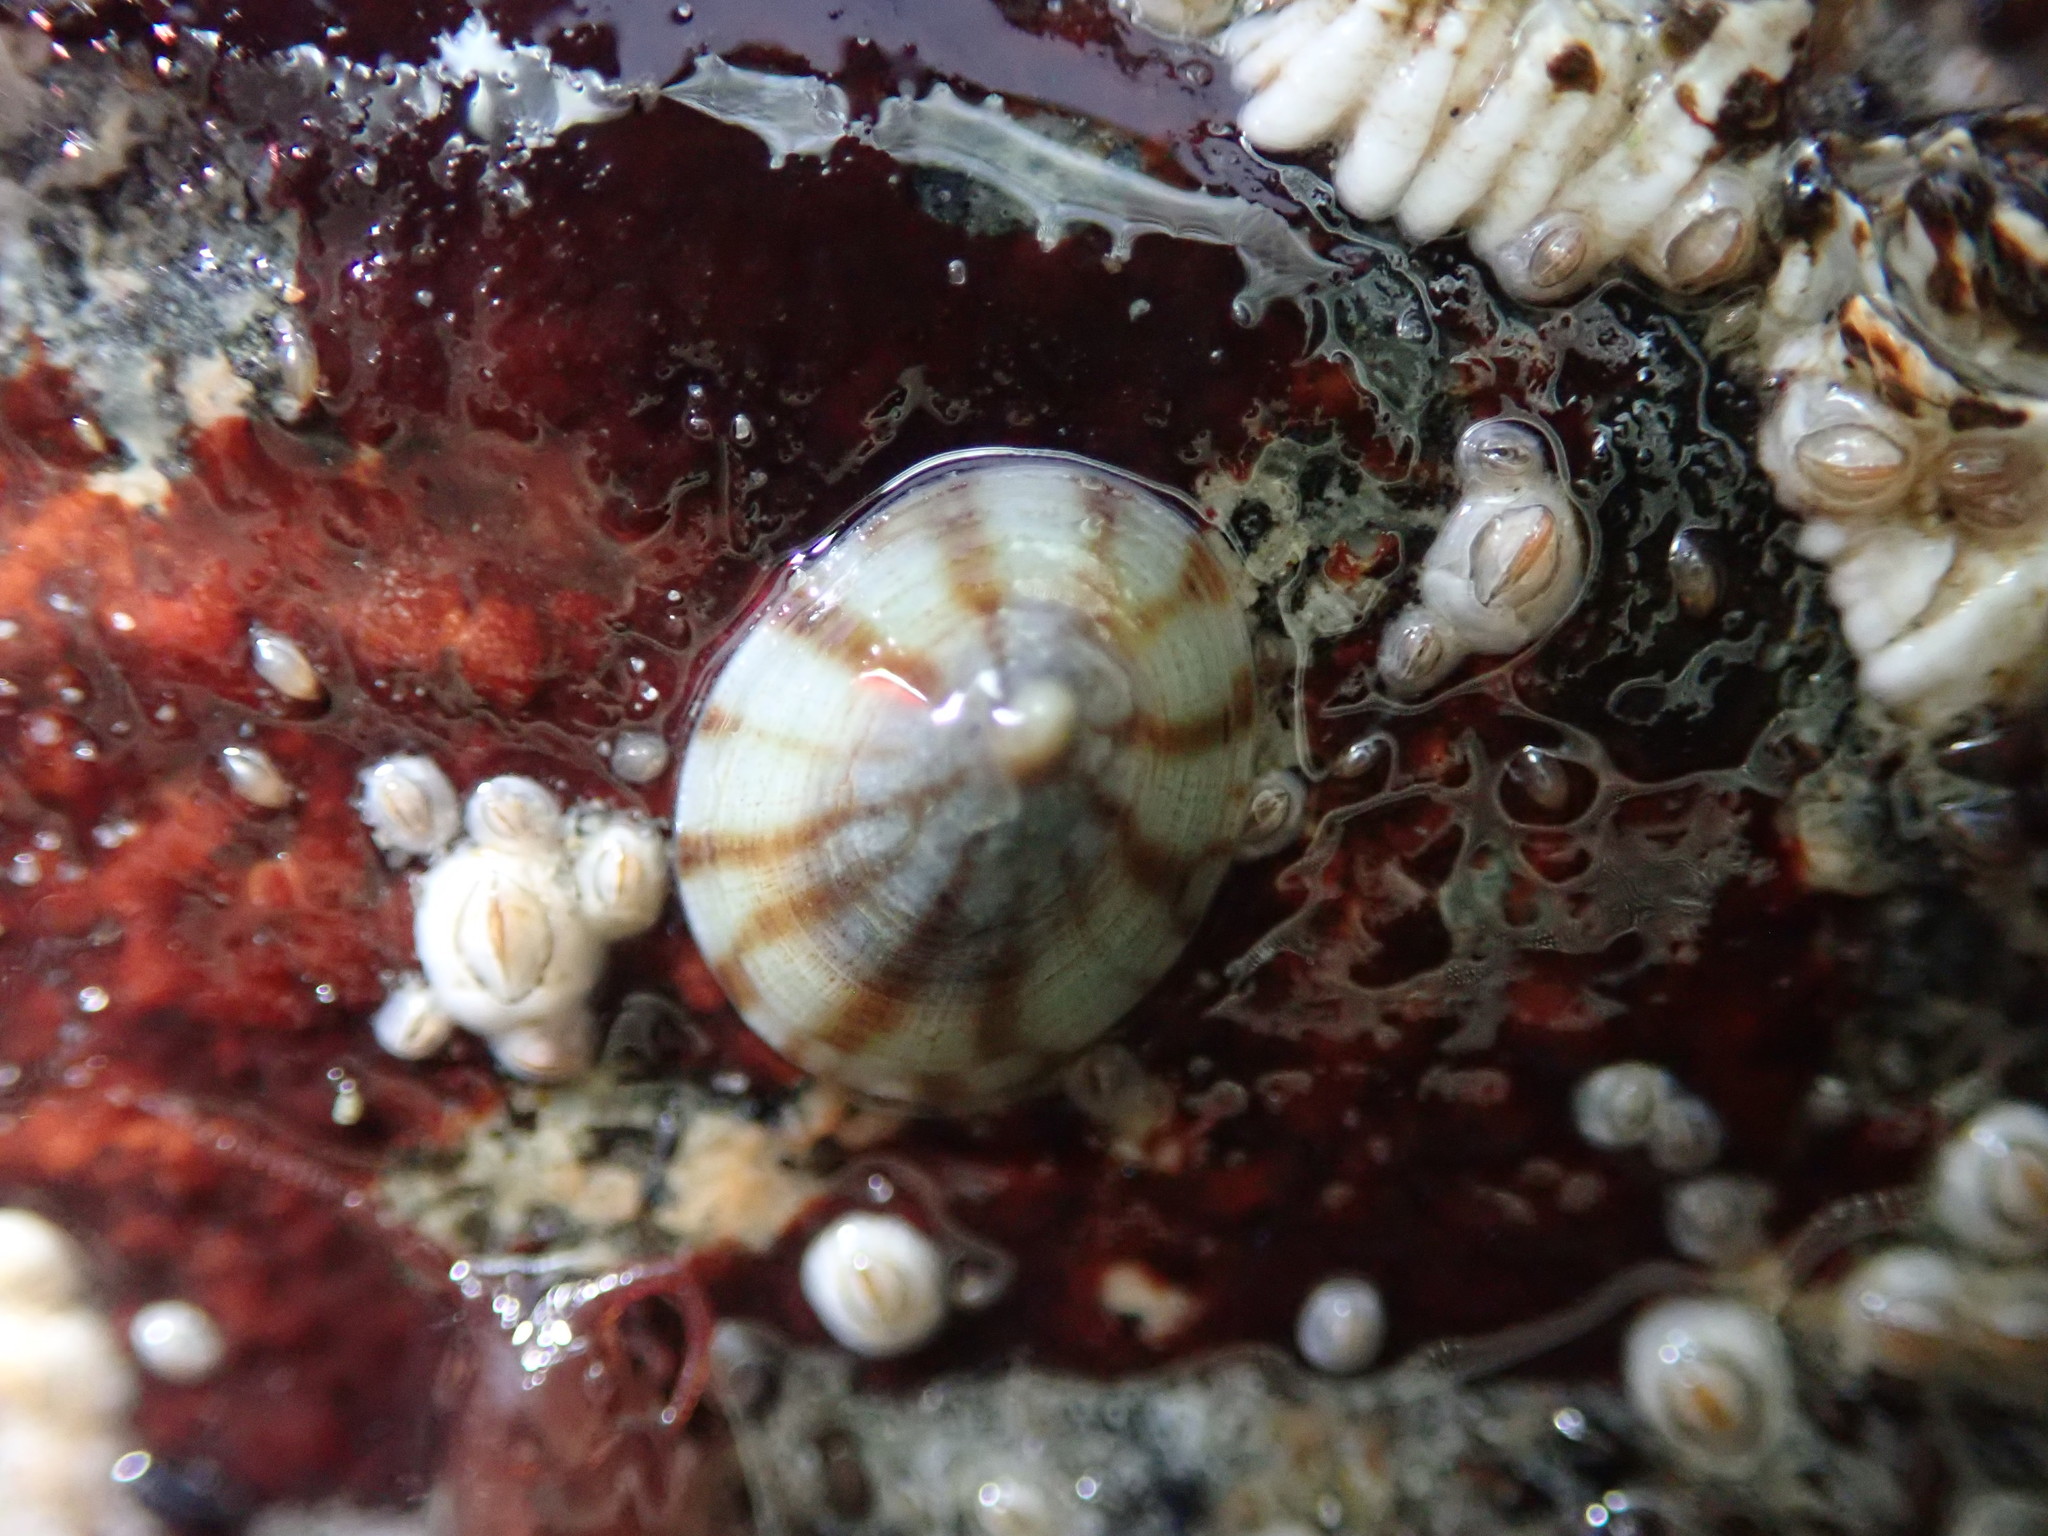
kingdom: Animalia
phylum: Mollusca
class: Gastropoda
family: Lottiidae
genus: Testudinalia
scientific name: Testudinalia testudinalis
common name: Common tortoiseshell limpet
